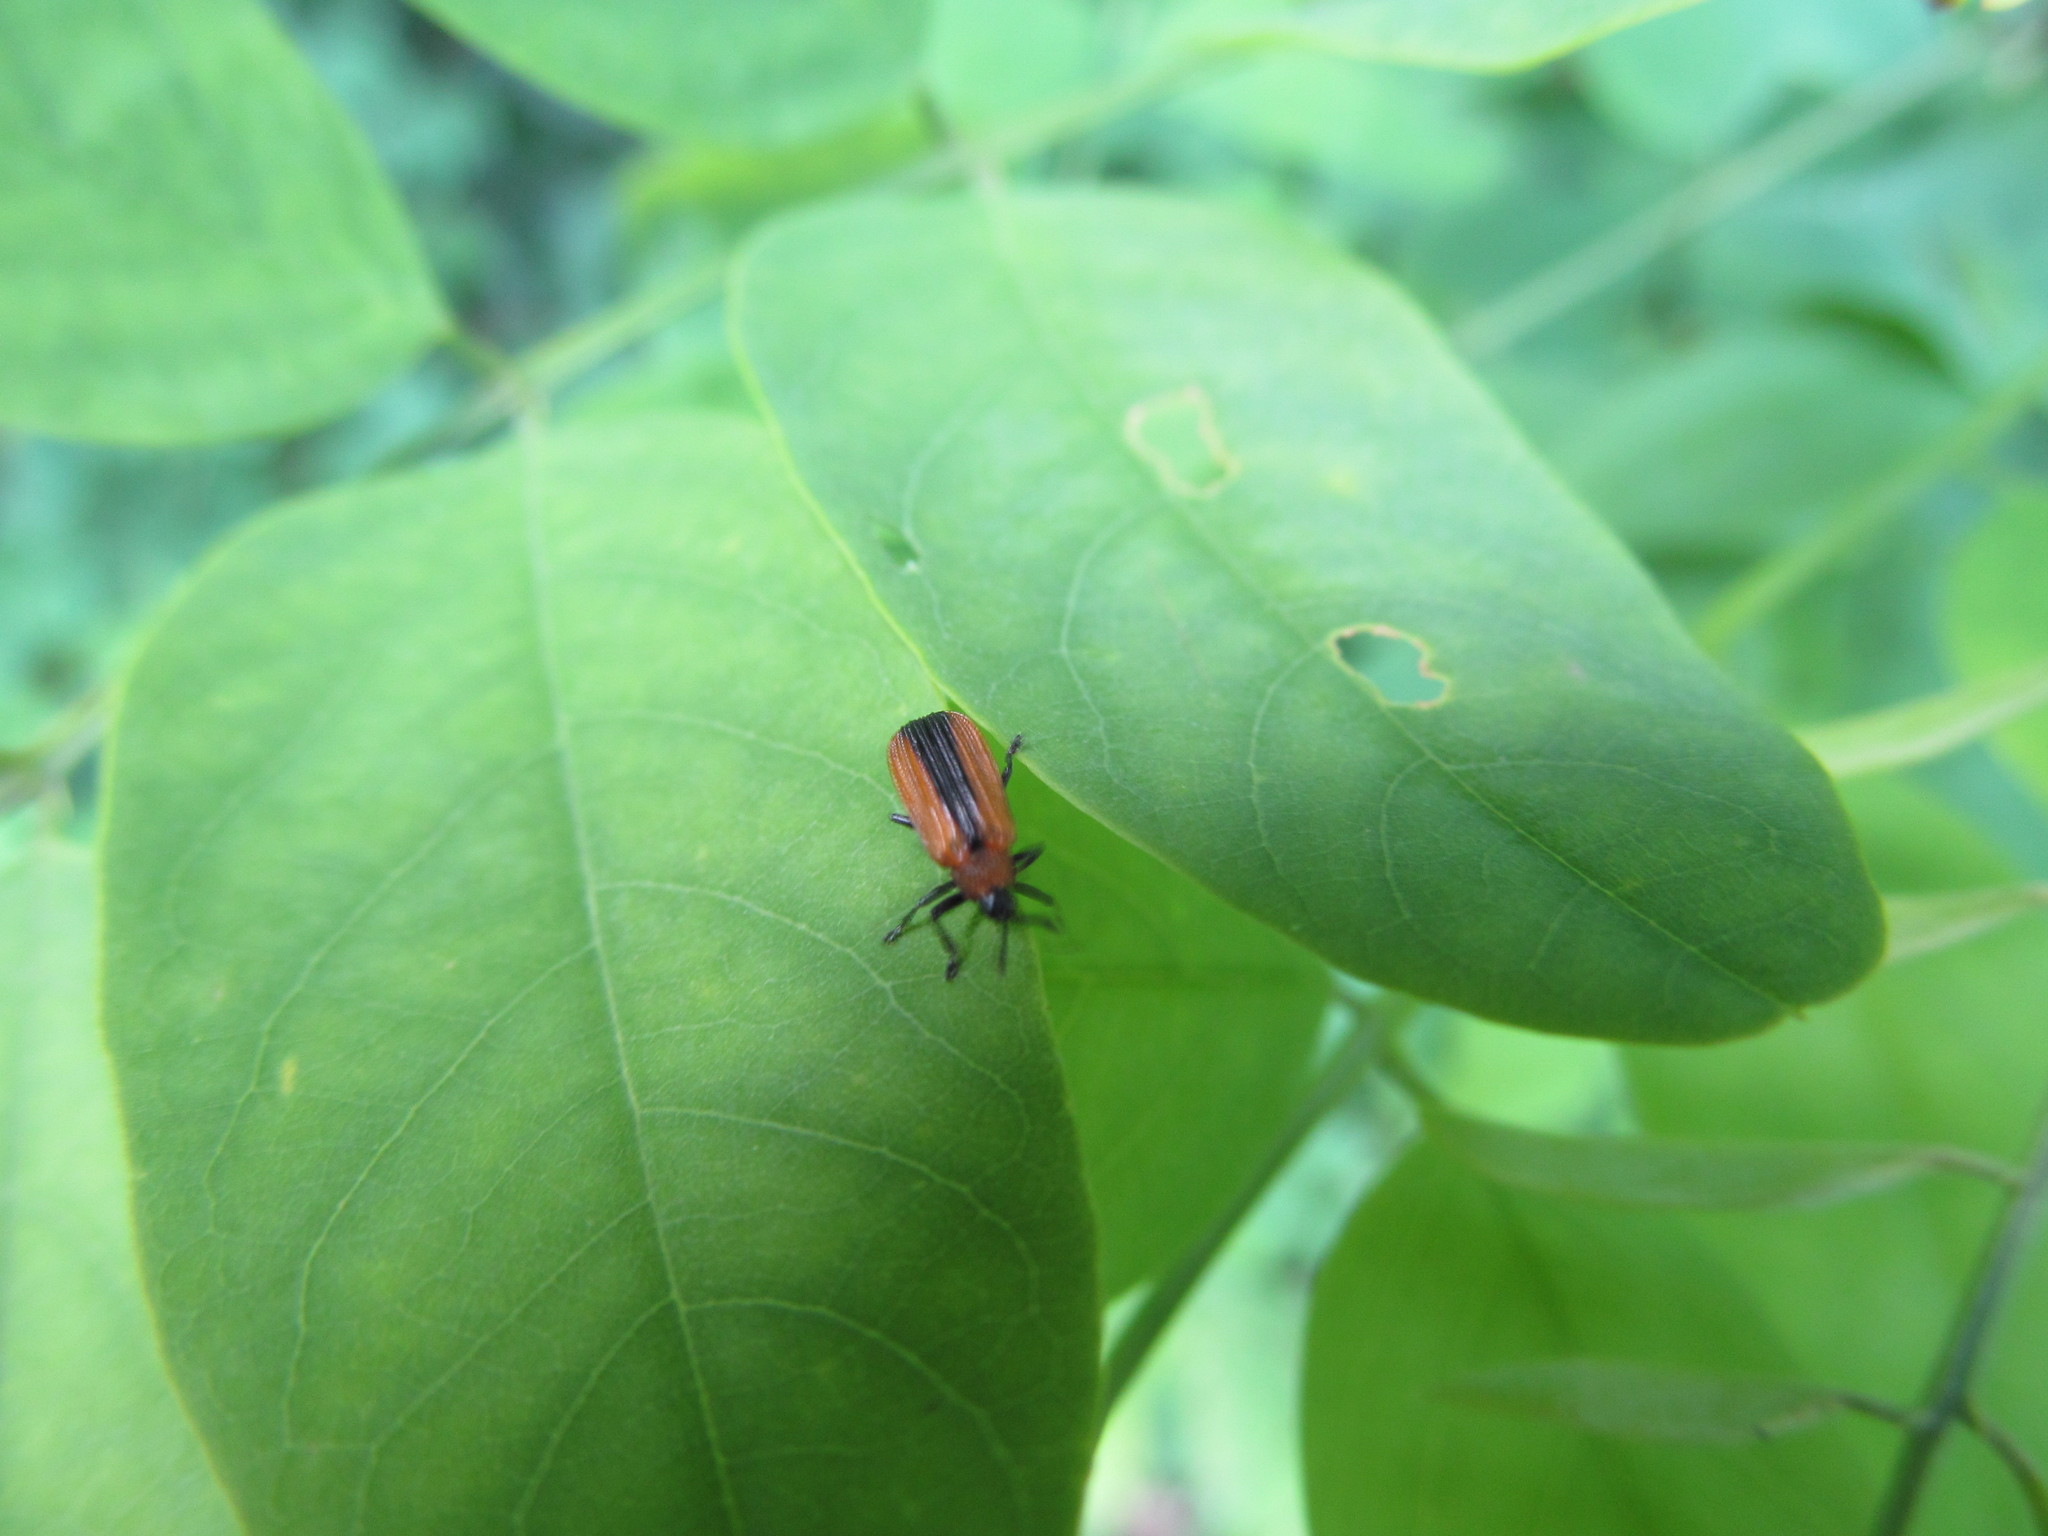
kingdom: Animalia
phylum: Arthropoda
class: Insecta
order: Coleoptera
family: Chrysomelidae
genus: Odontota
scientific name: Odontota dorsalis
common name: Locust leaf-miner beetle
